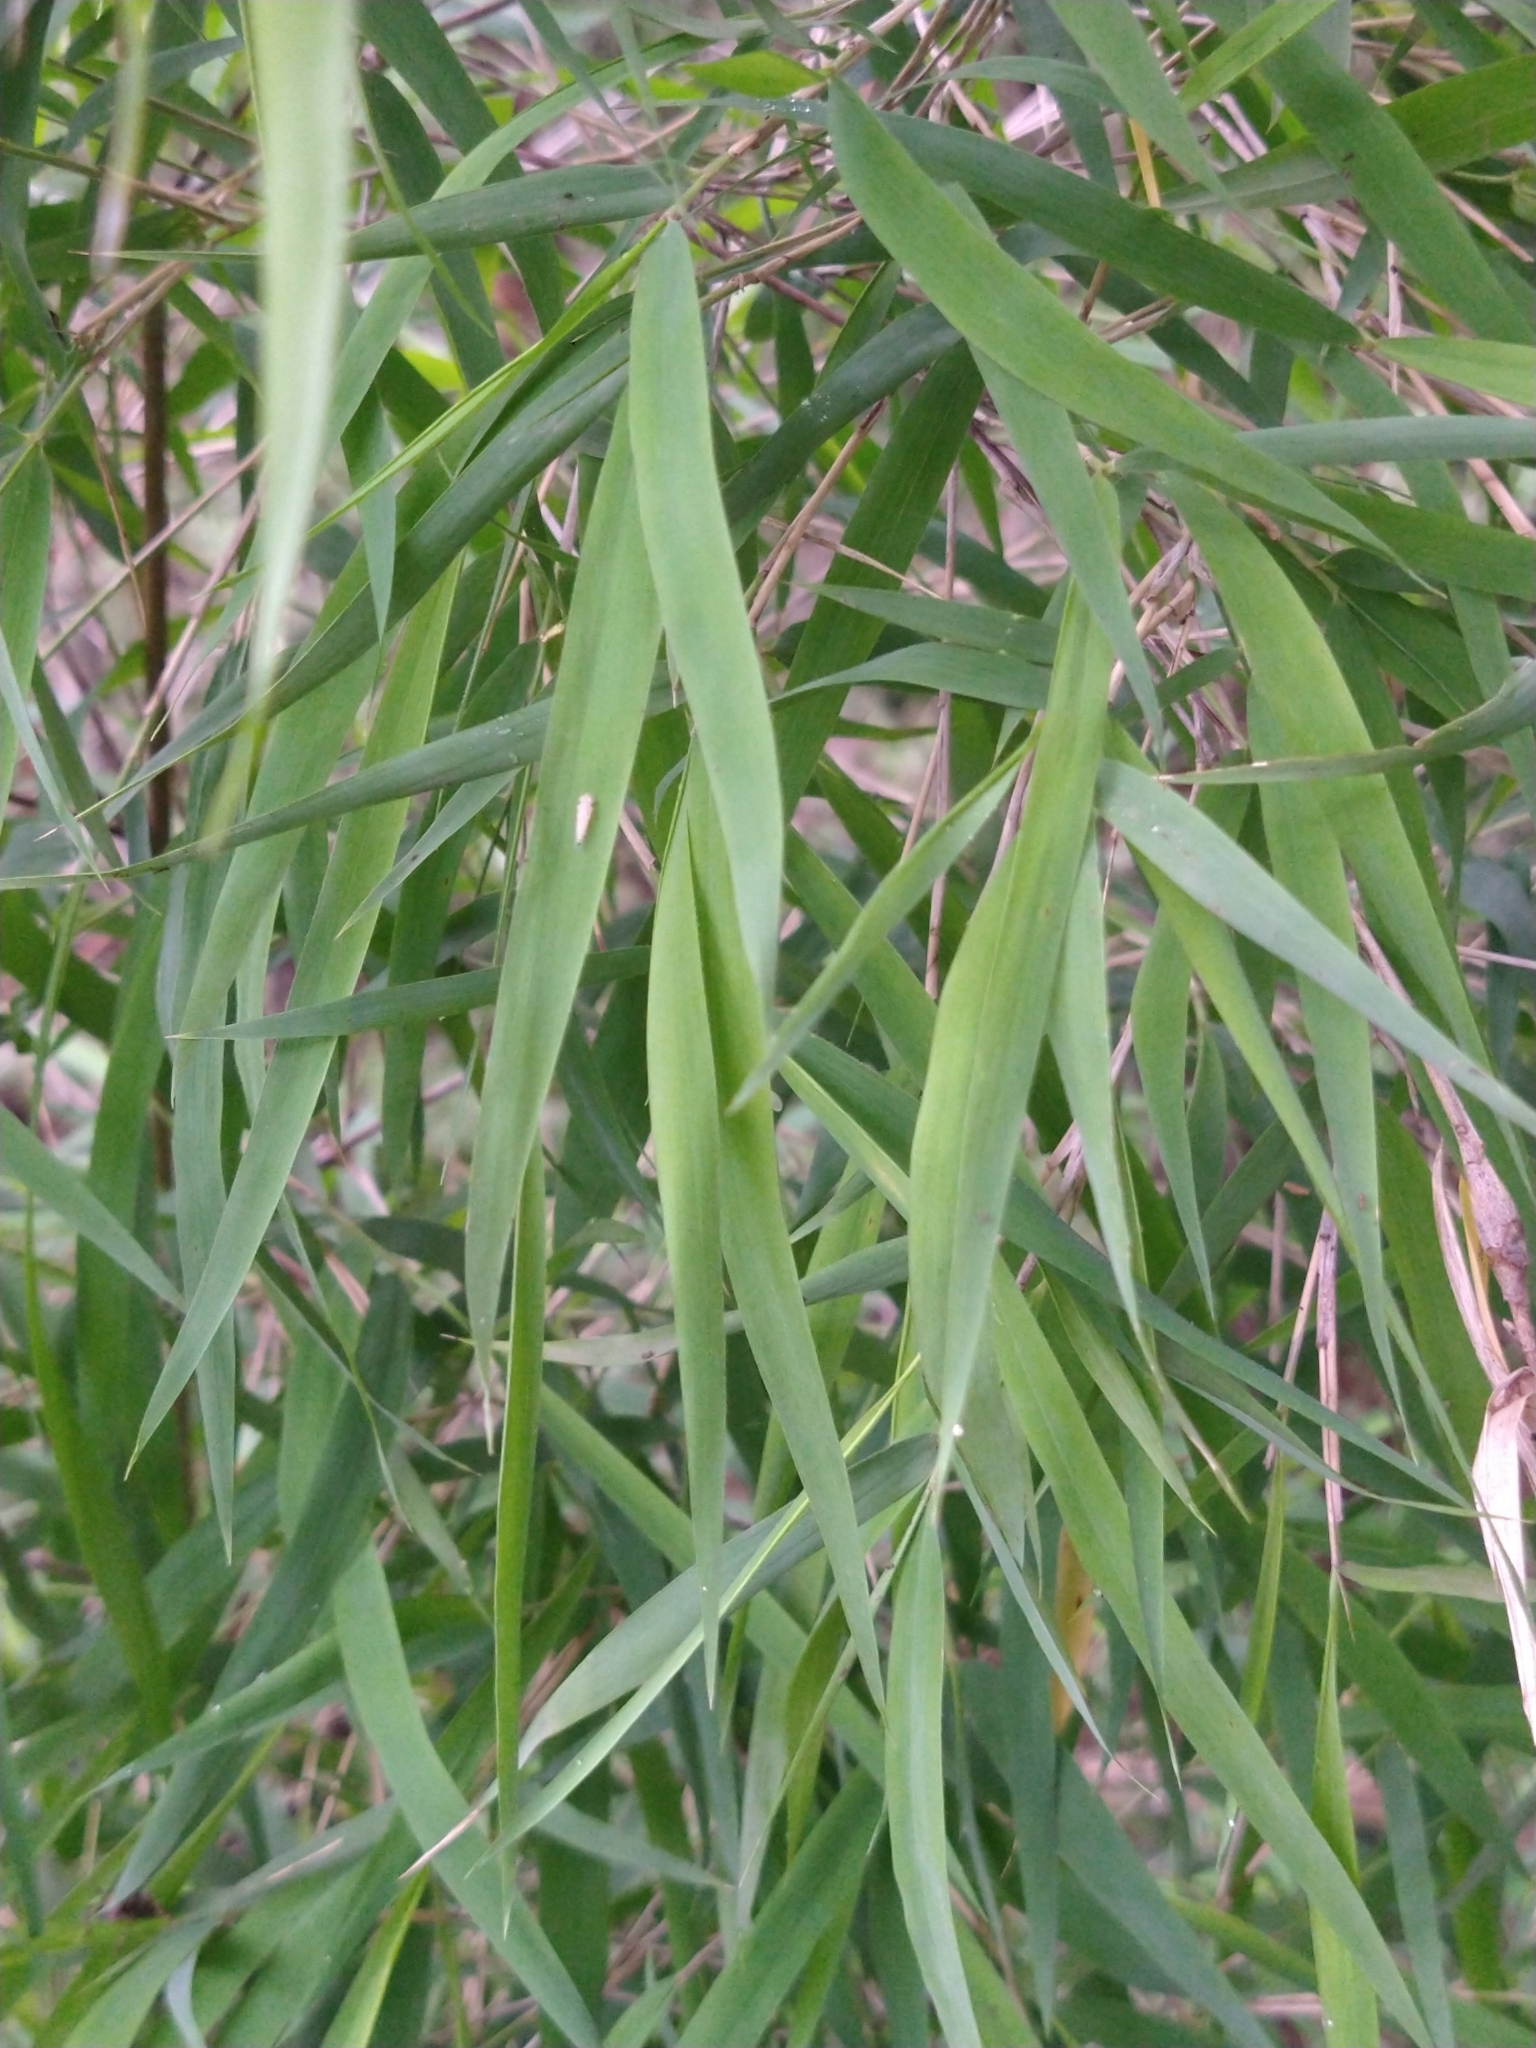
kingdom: Plantae
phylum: Tracheophyta
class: Liliopsida
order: Poales
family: Poaceae
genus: Otatea
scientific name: Otatea acuminata
